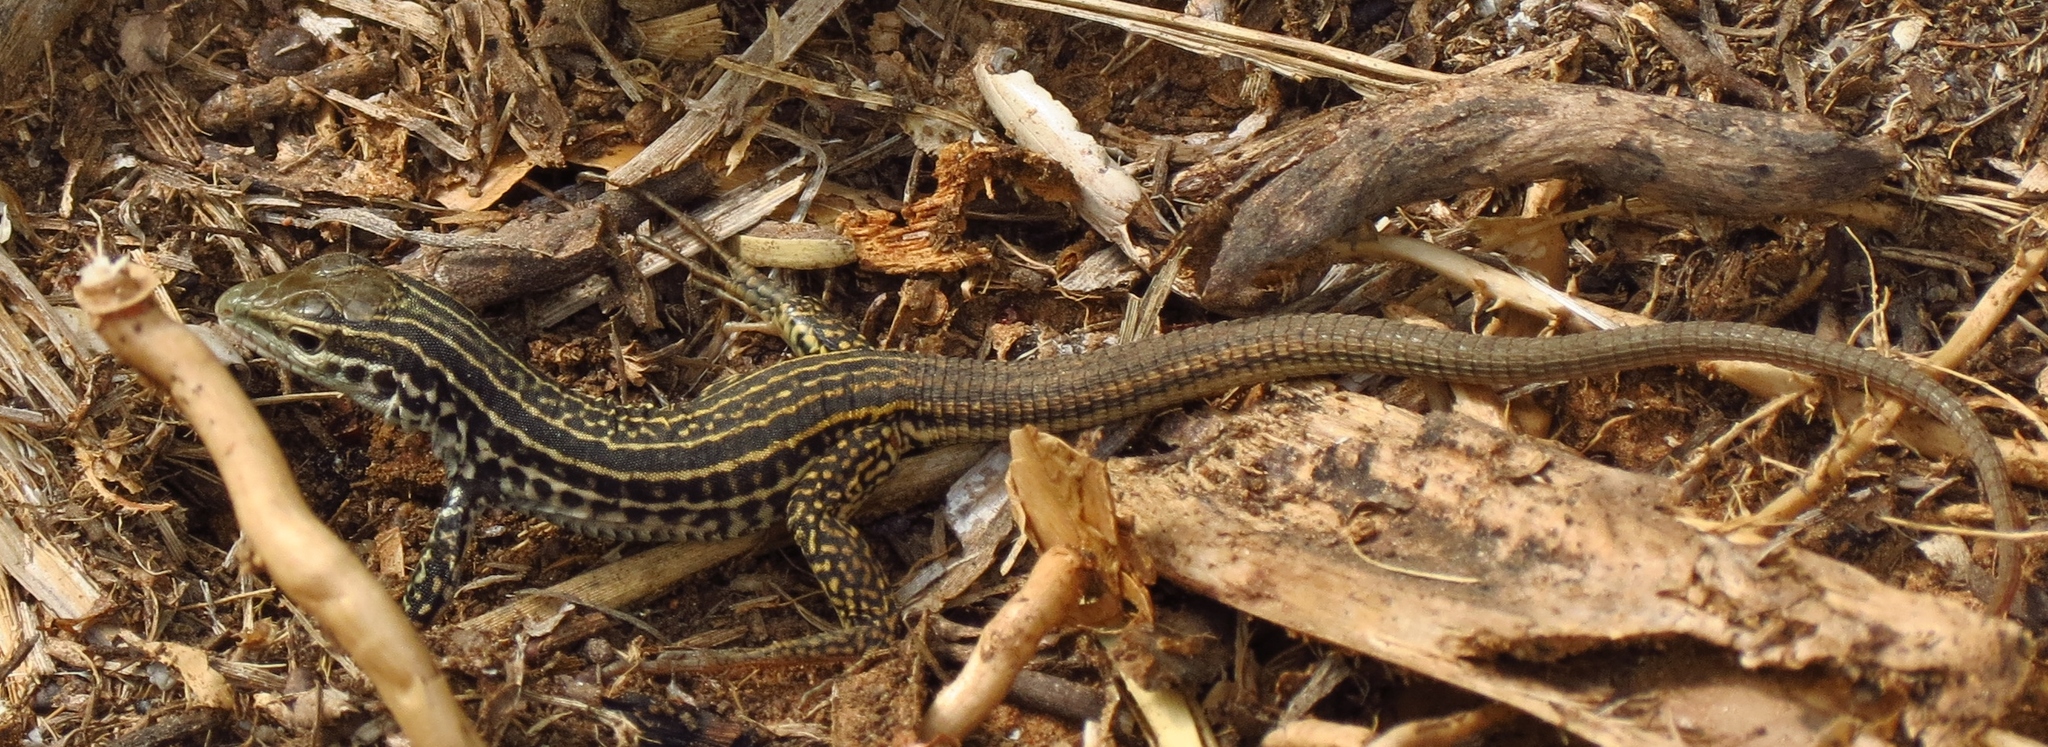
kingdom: Animalia
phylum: Chordata
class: Squamata
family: Teiidae
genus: Aspidoscelis
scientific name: Aspidoscelis tesselatus
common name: Common checkered whiptail [tesselata]
